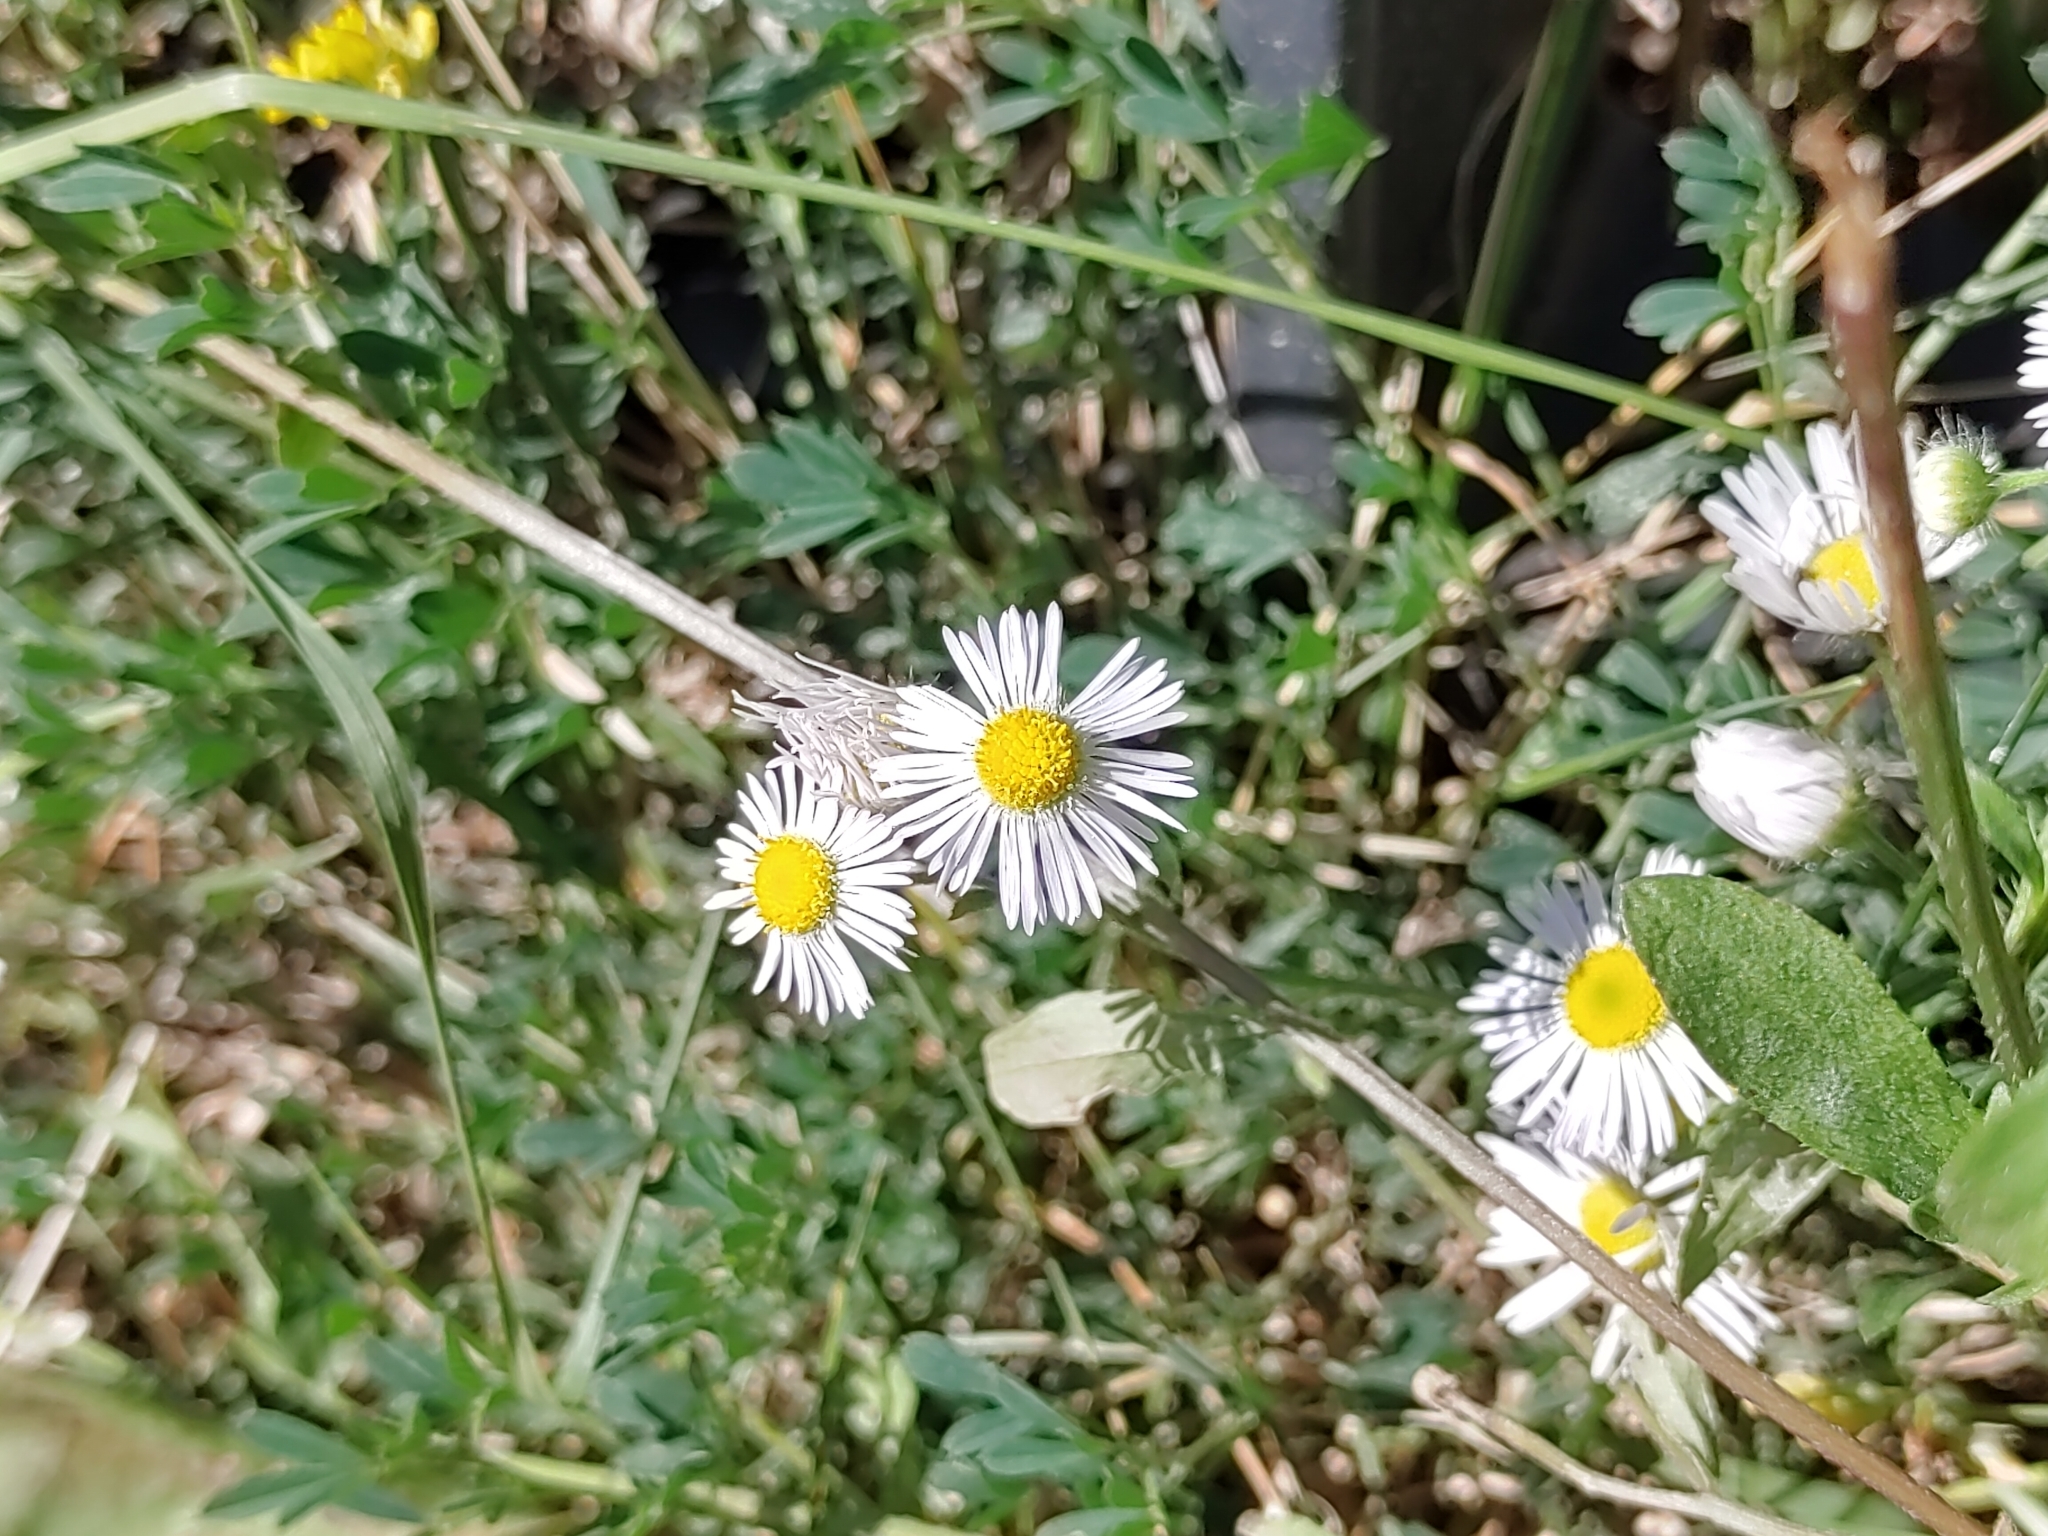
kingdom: Plantae
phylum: Tracheophyta
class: Magnoliopsida
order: Asterales
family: Asteraceae
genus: Erigeron
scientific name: Erigeron annuus
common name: Tall fleabane
